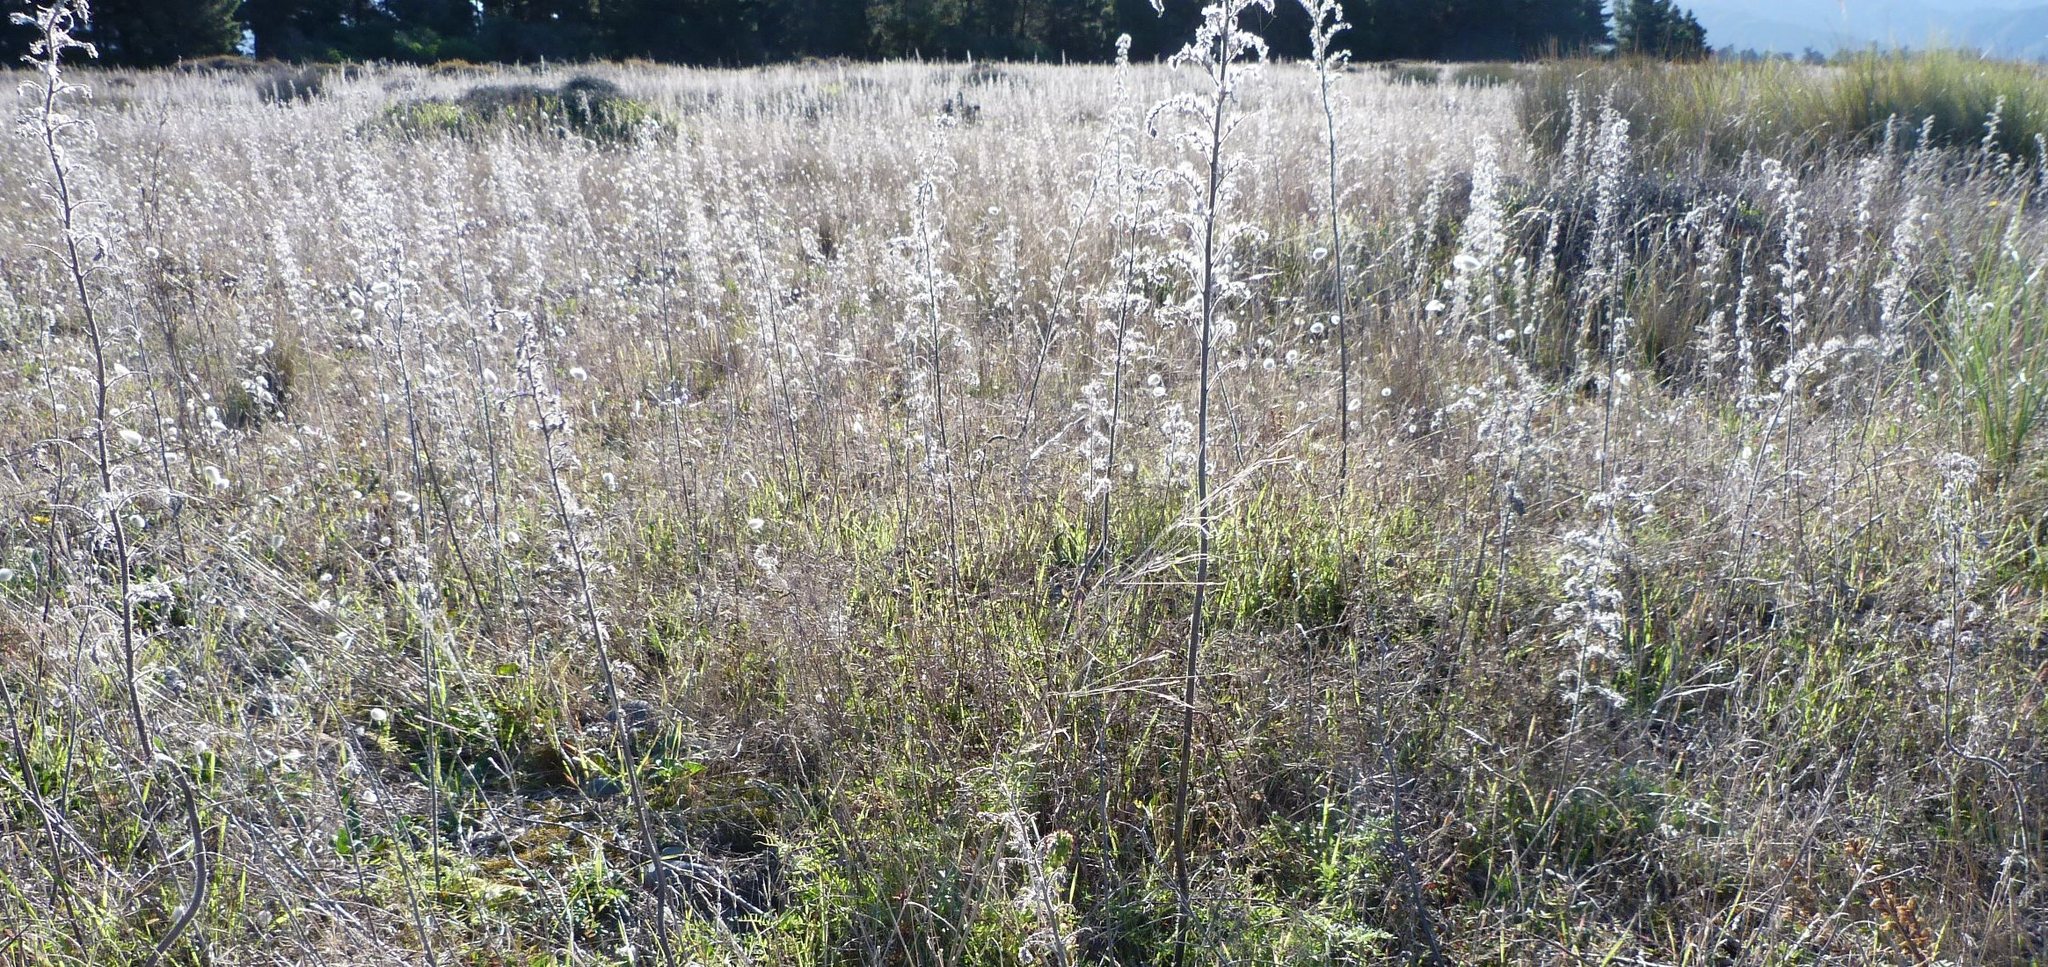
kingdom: Plantae
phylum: Tracheophyta
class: Magnoliopsida
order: Boraginales
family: Boraginaceae
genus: Echium
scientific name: Echium vulgare
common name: Common viper's bugloss
